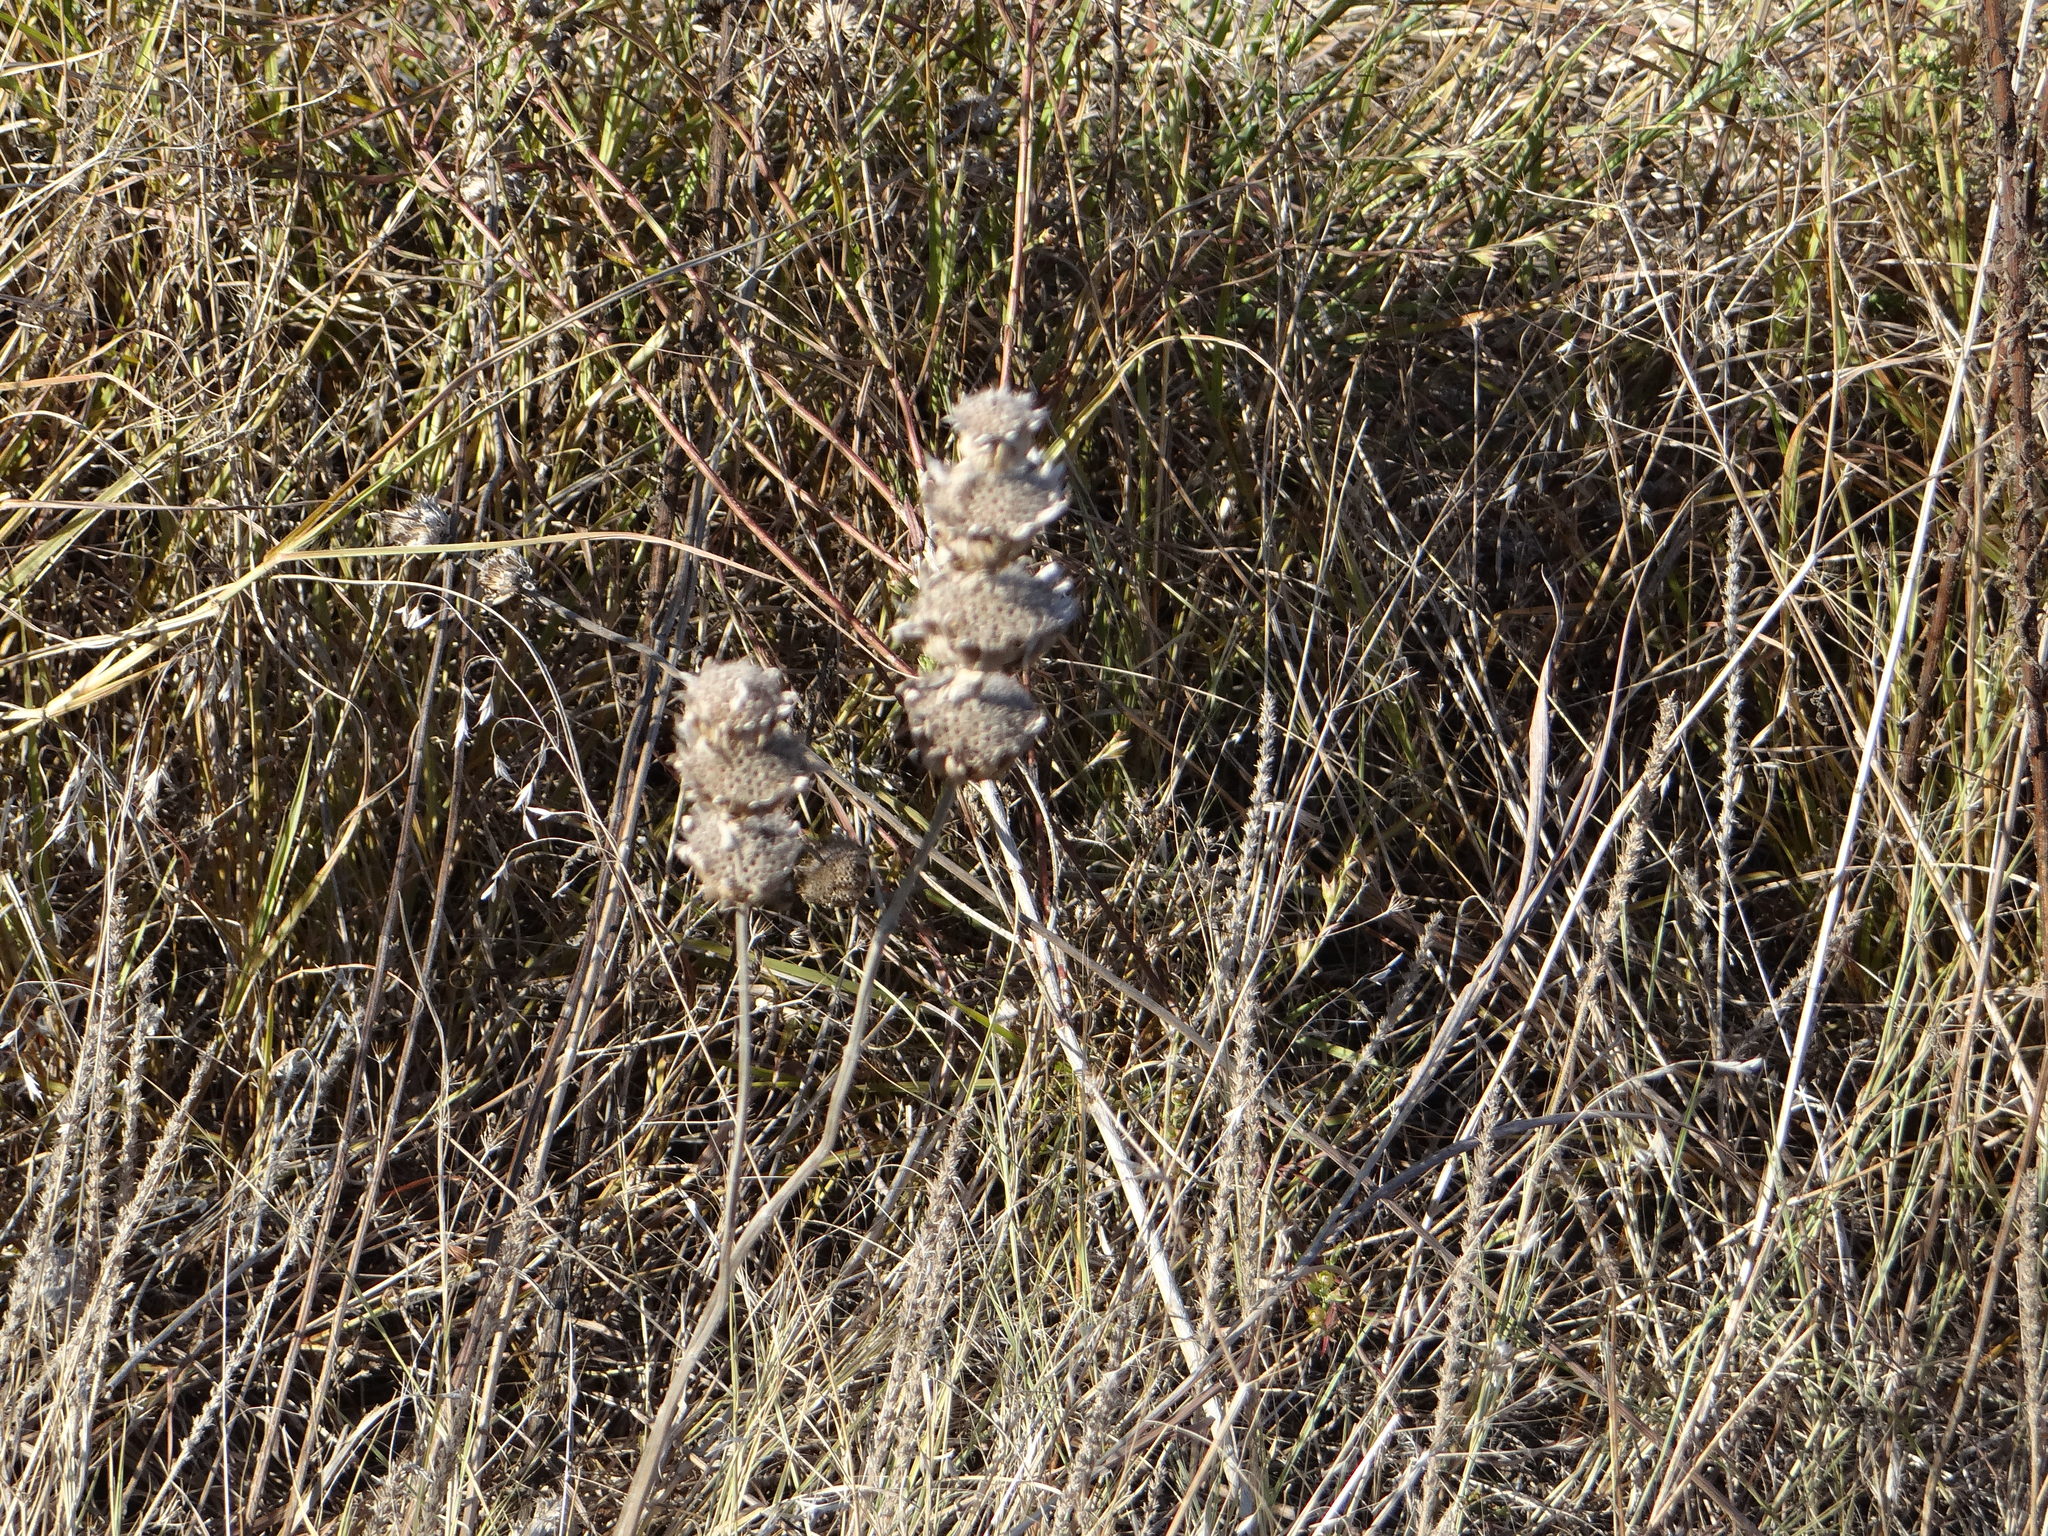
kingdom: Plantae
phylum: Tracheophyta
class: Magnoliopsida
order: Lamiales
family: Lamiaceae
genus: Monarda
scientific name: Monarda citriodora
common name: Lemon beebalm
